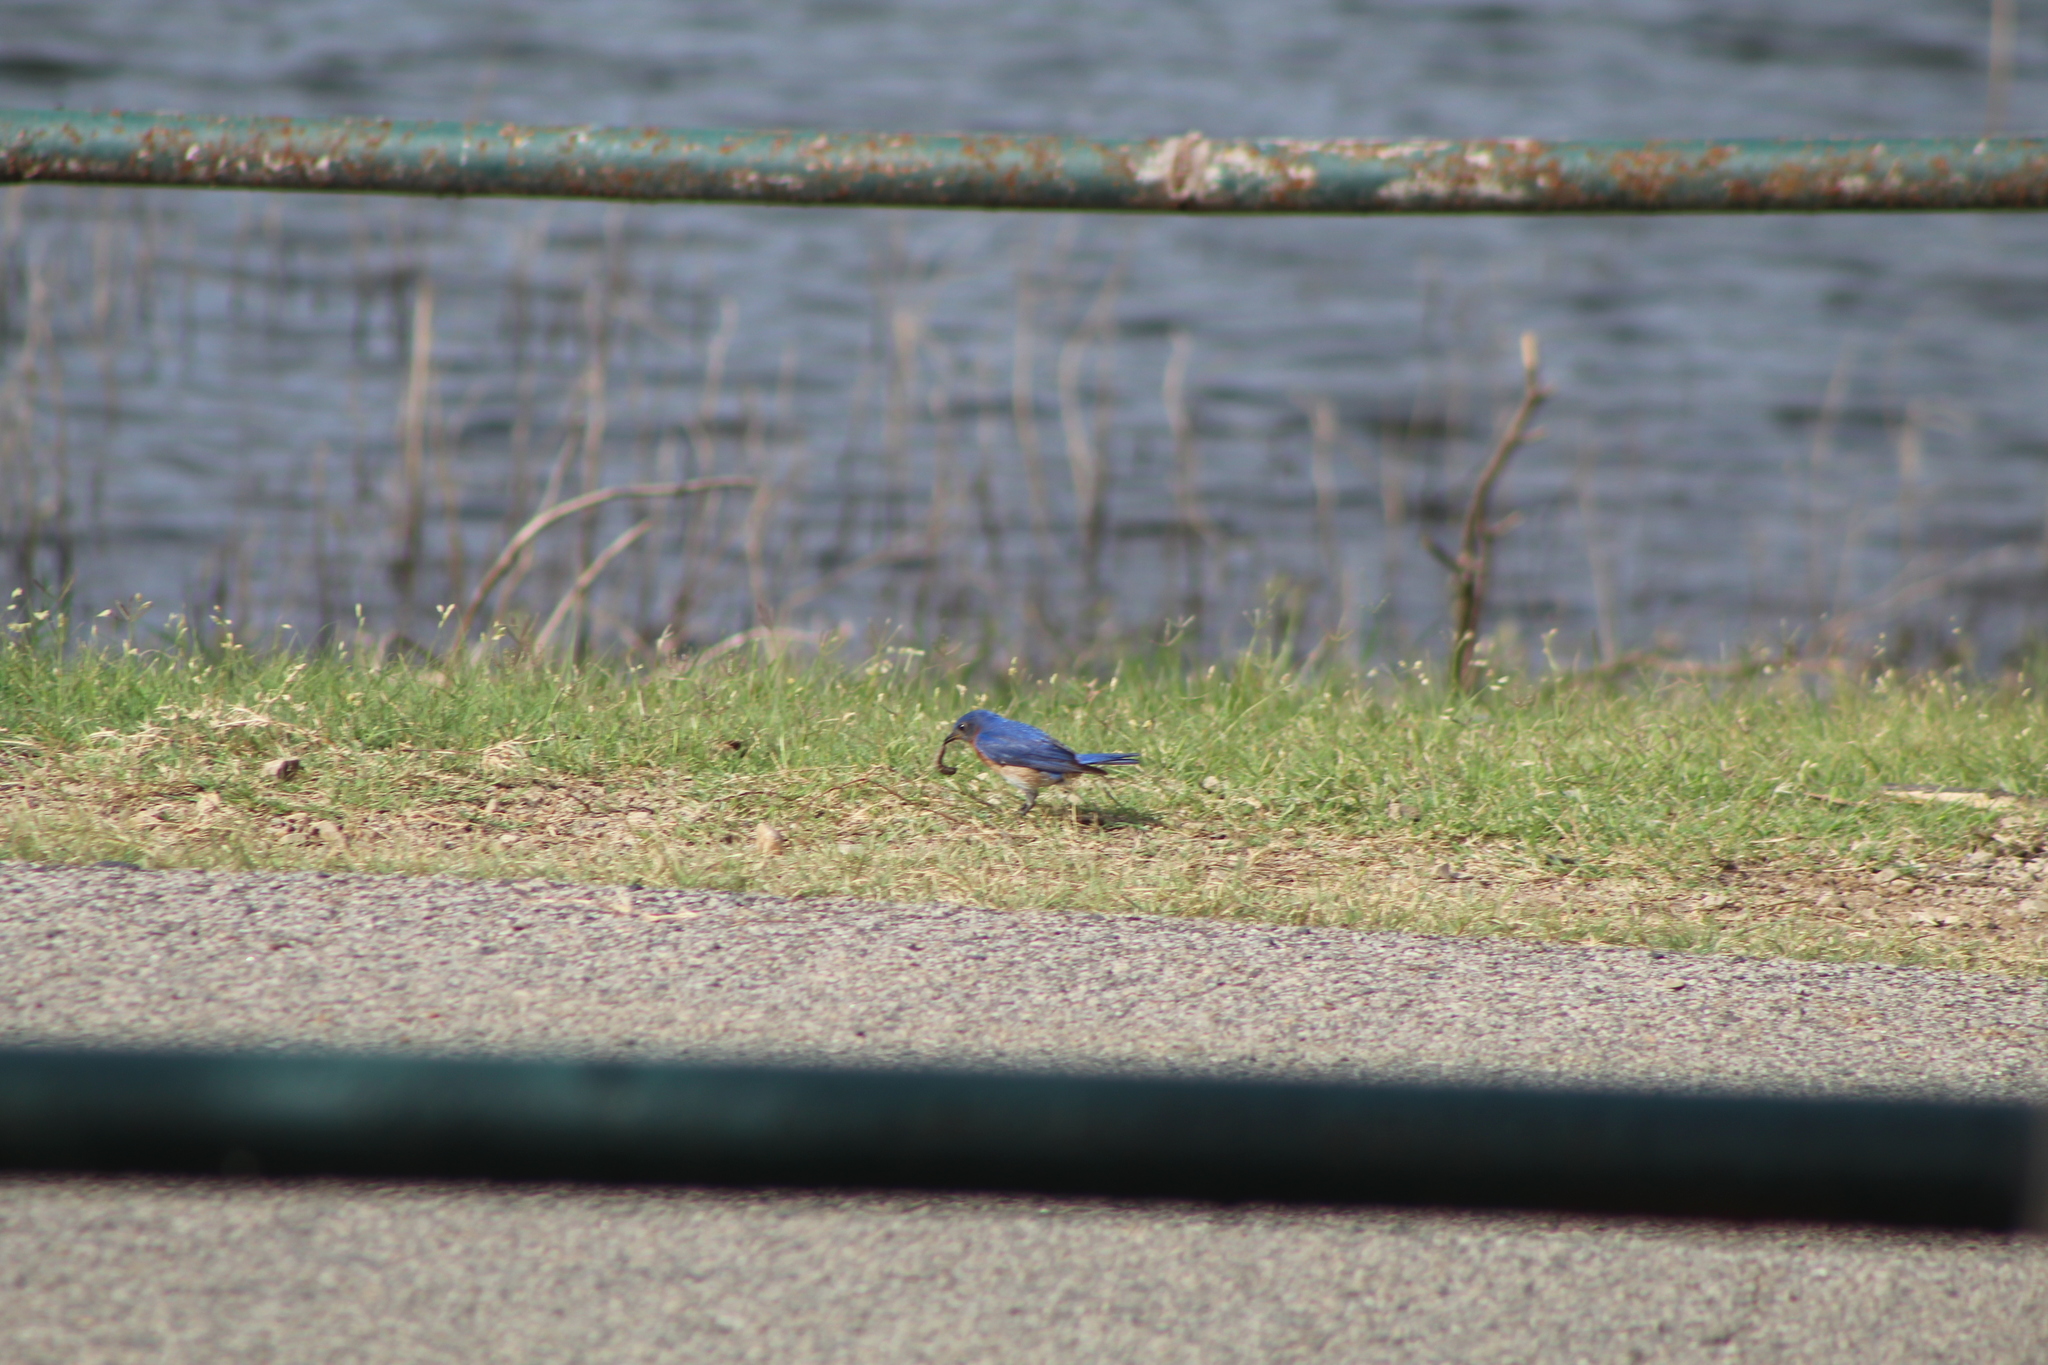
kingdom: Animalia
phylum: Chordata
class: Aves
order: Passeriformes
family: Turdidae
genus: Sialia
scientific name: Sialia sialis
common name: Eastern bluebird
